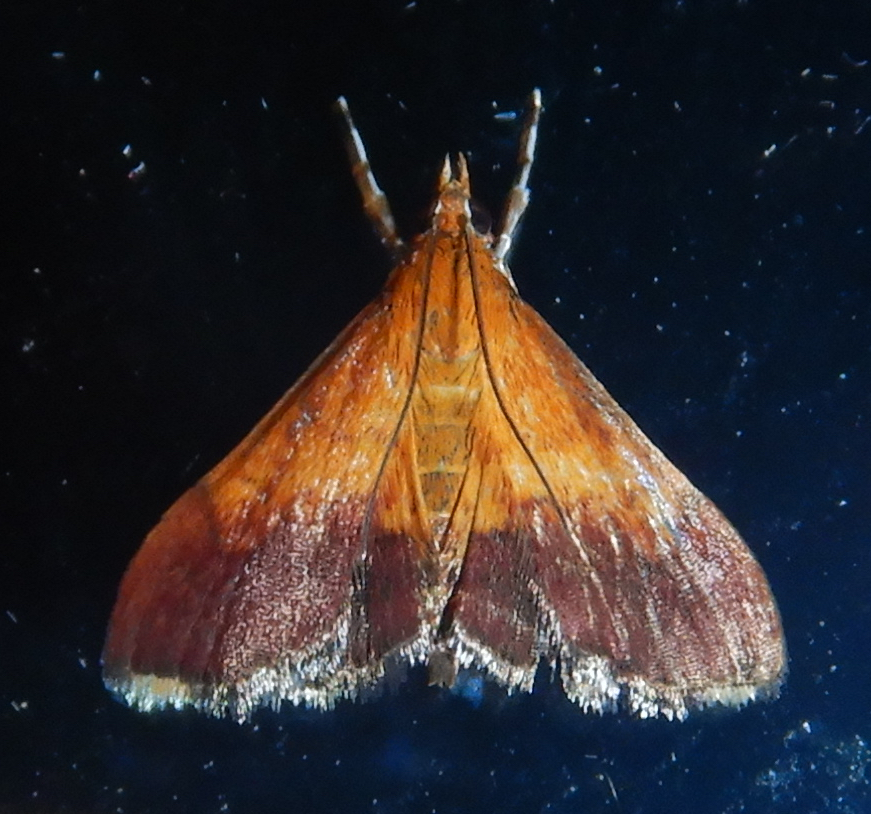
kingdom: Animalia
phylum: Arthropoda
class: Insecta
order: Lepidoptera
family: Crambidae
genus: Pyrausta
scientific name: Pyrausta bicoloralis
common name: Bicolored pyrausta moth
